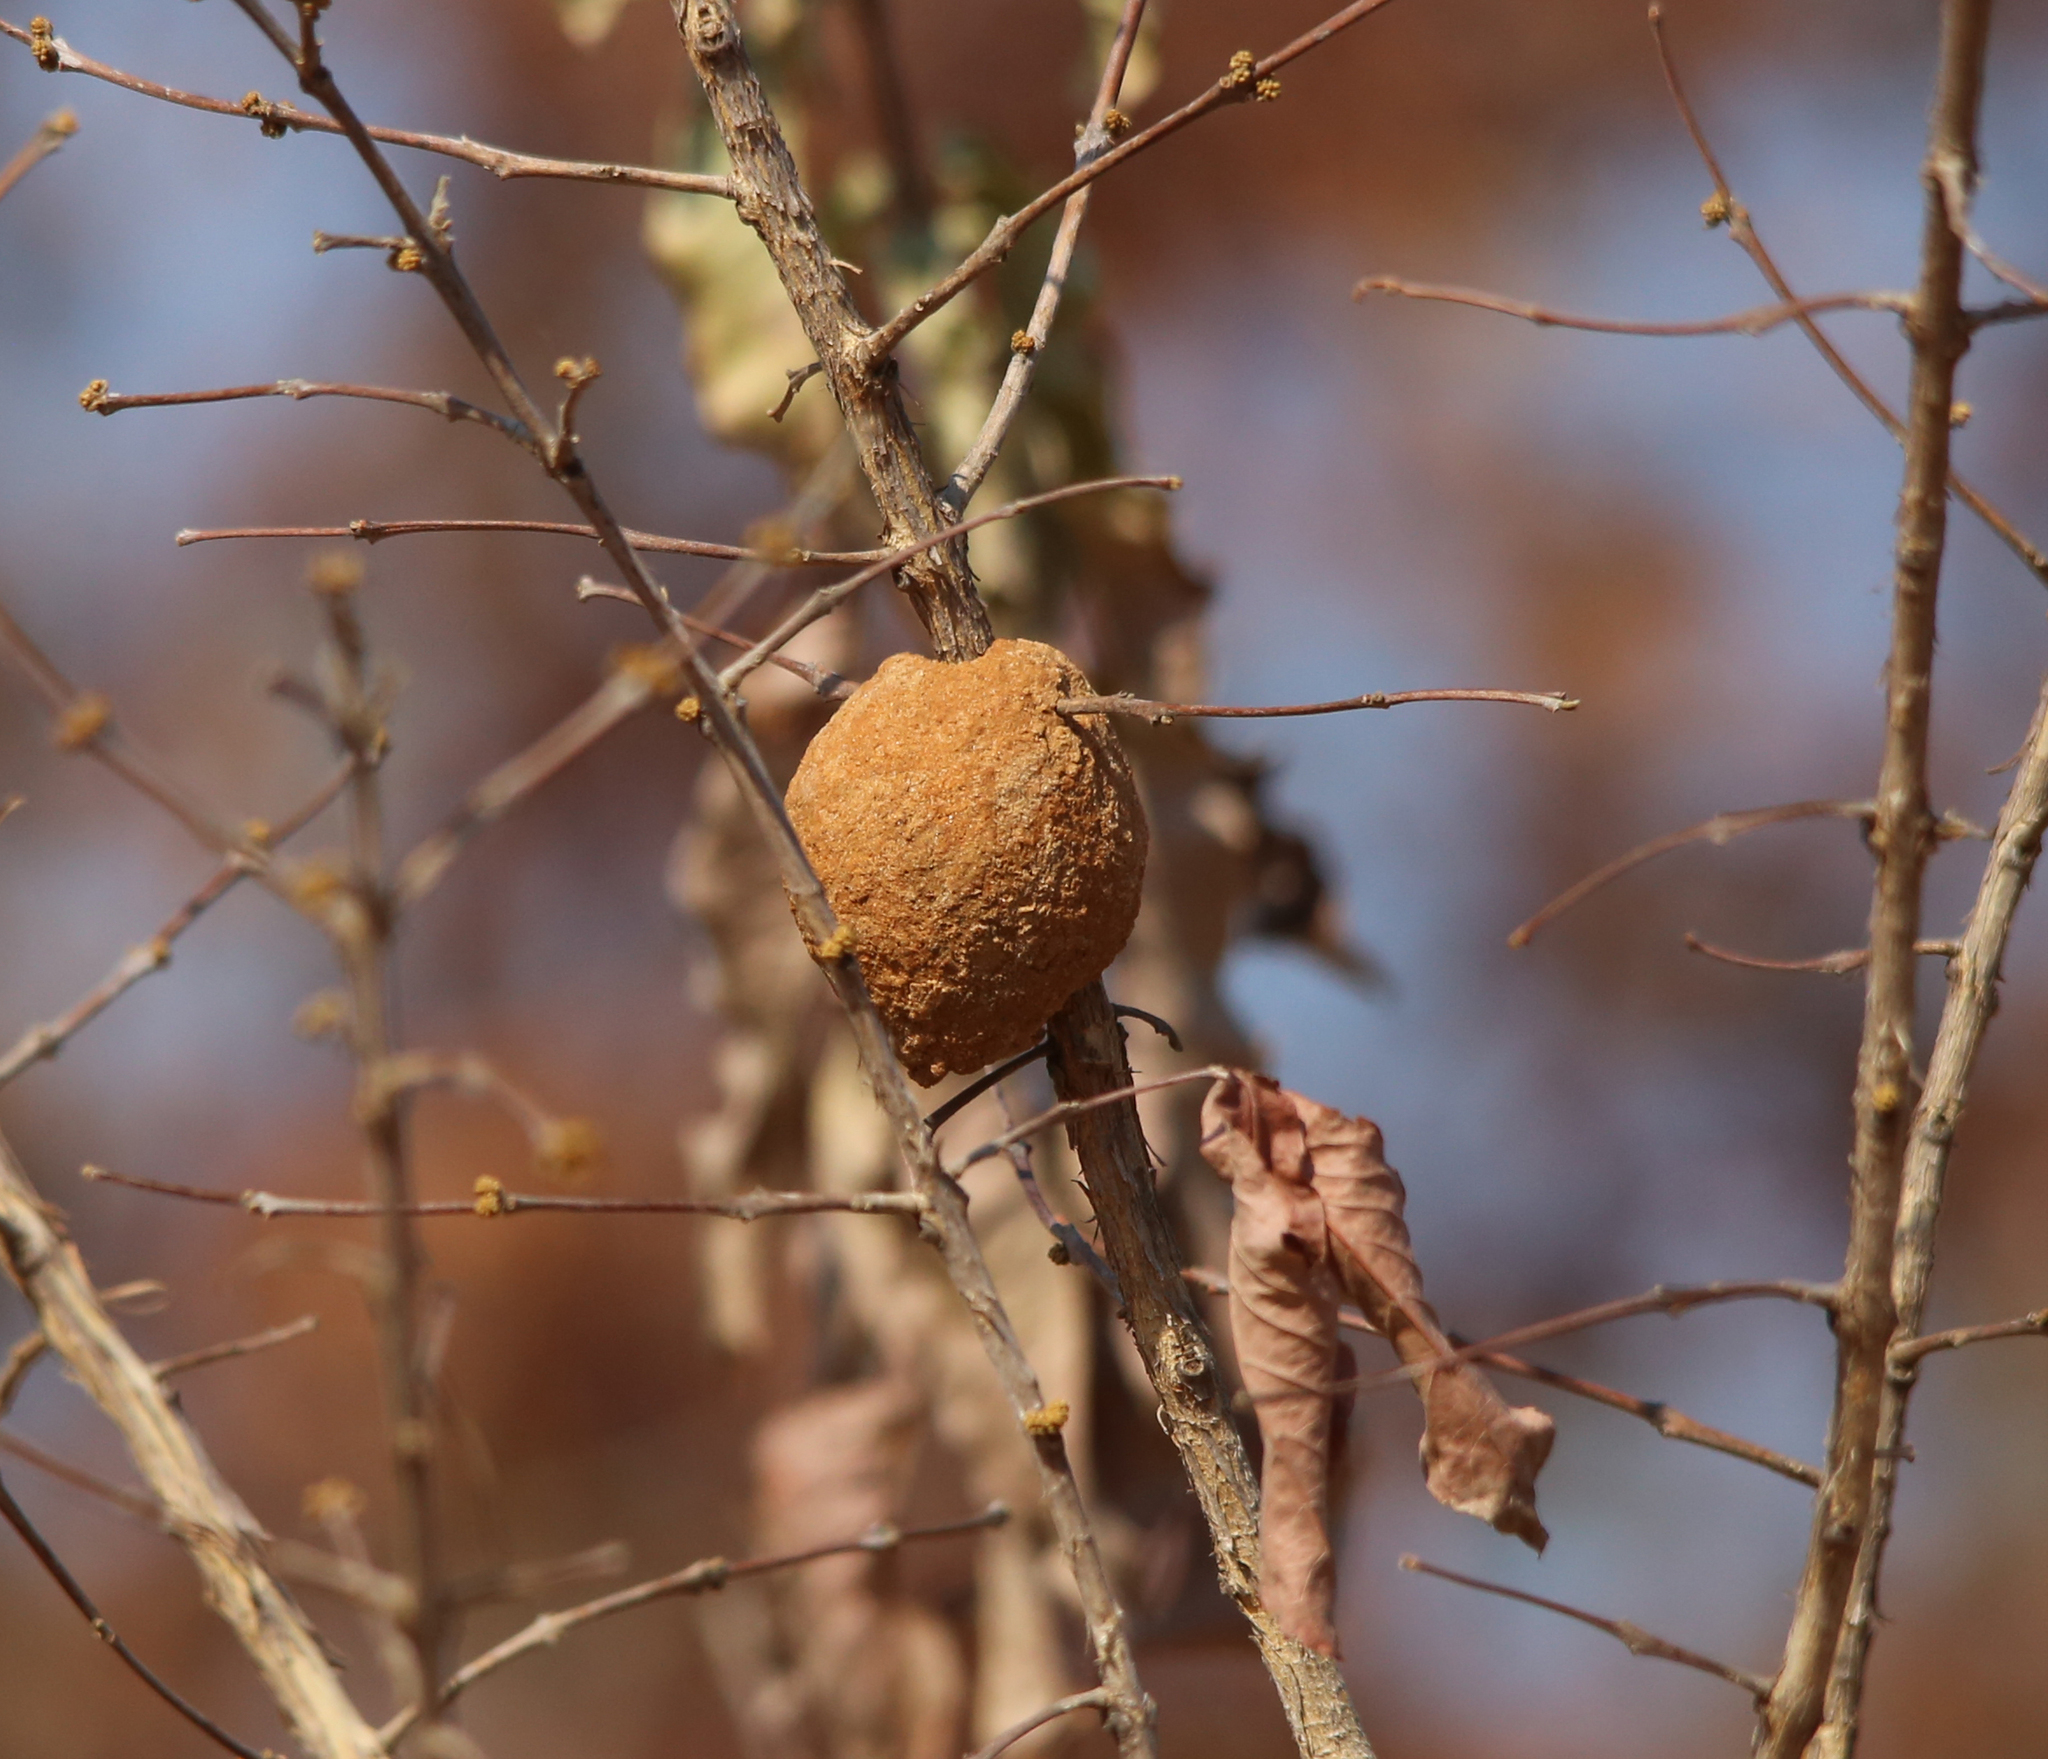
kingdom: Animalia
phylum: Arthropoda
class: Insecta
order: Hymenoptera
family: Eumenidae
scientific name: Eumenidae
